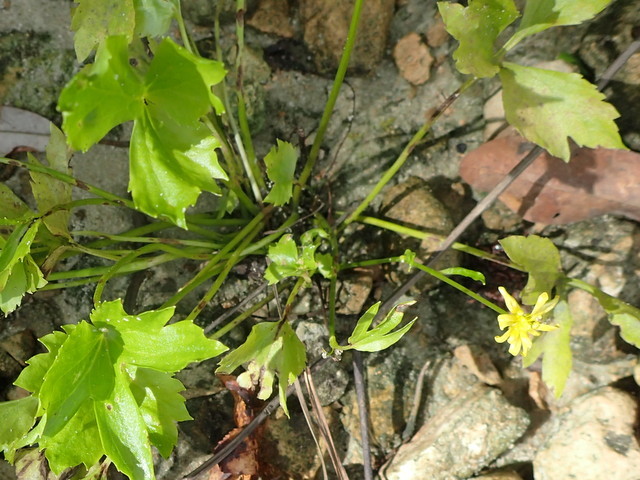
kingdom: Plantae
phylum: Tracheophyta
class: Magnoliopsida
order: Ranunculales
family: Ranunculaceae
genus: Ranunculus
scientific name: Ranunculus hispidus
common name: Bristly buttercup
